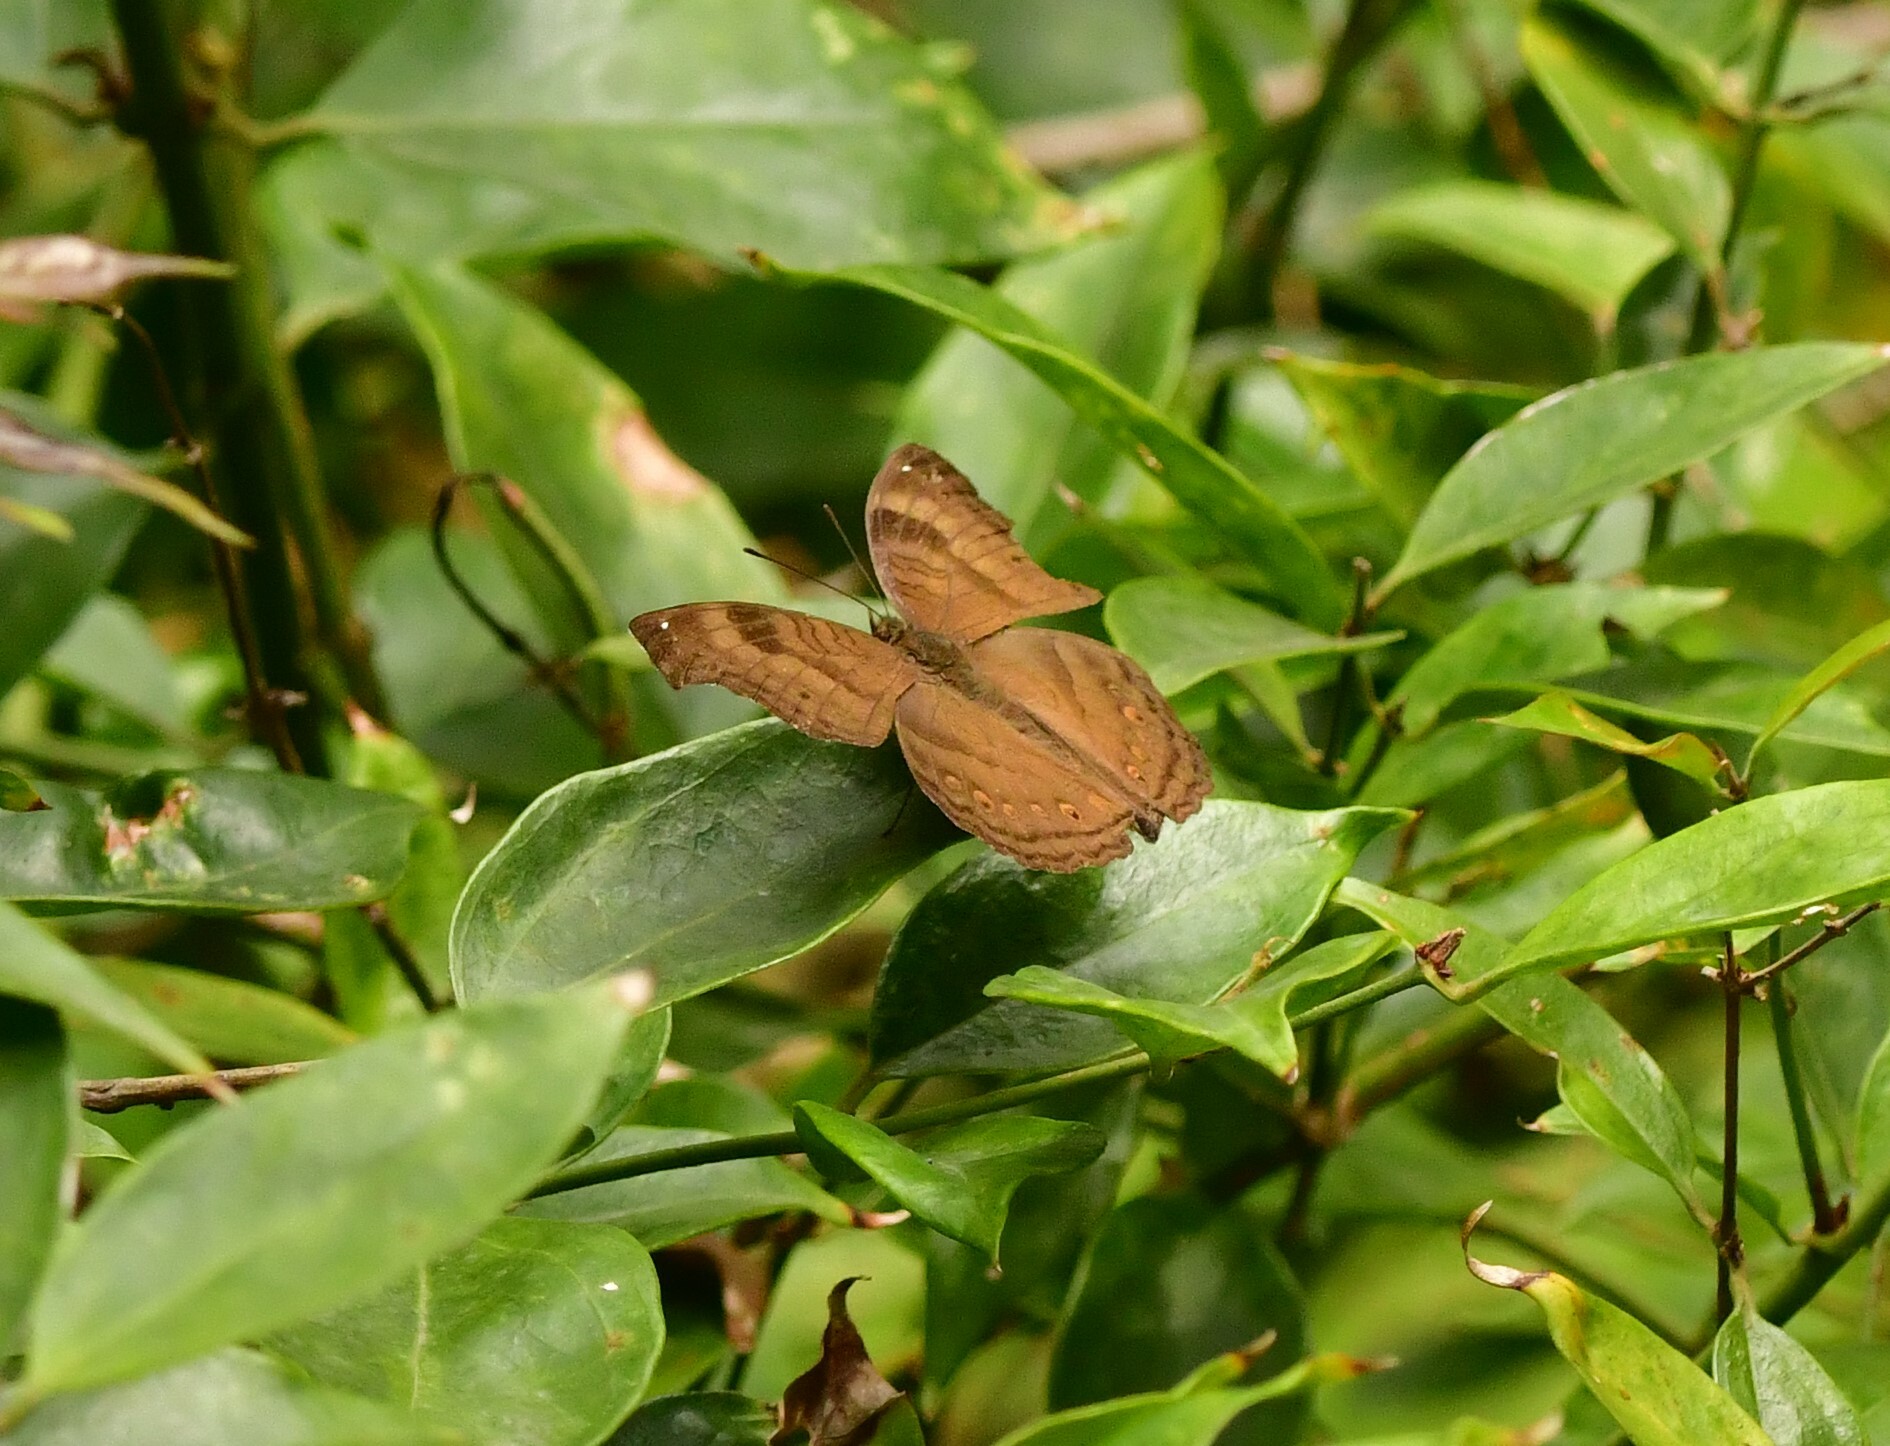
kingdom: Animalia
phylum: Arthropoda
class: Insecta
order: Lepidoptera
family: Nymphalidae
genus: Junonia
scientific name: Junonia iphita
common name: Chocolate pansy
